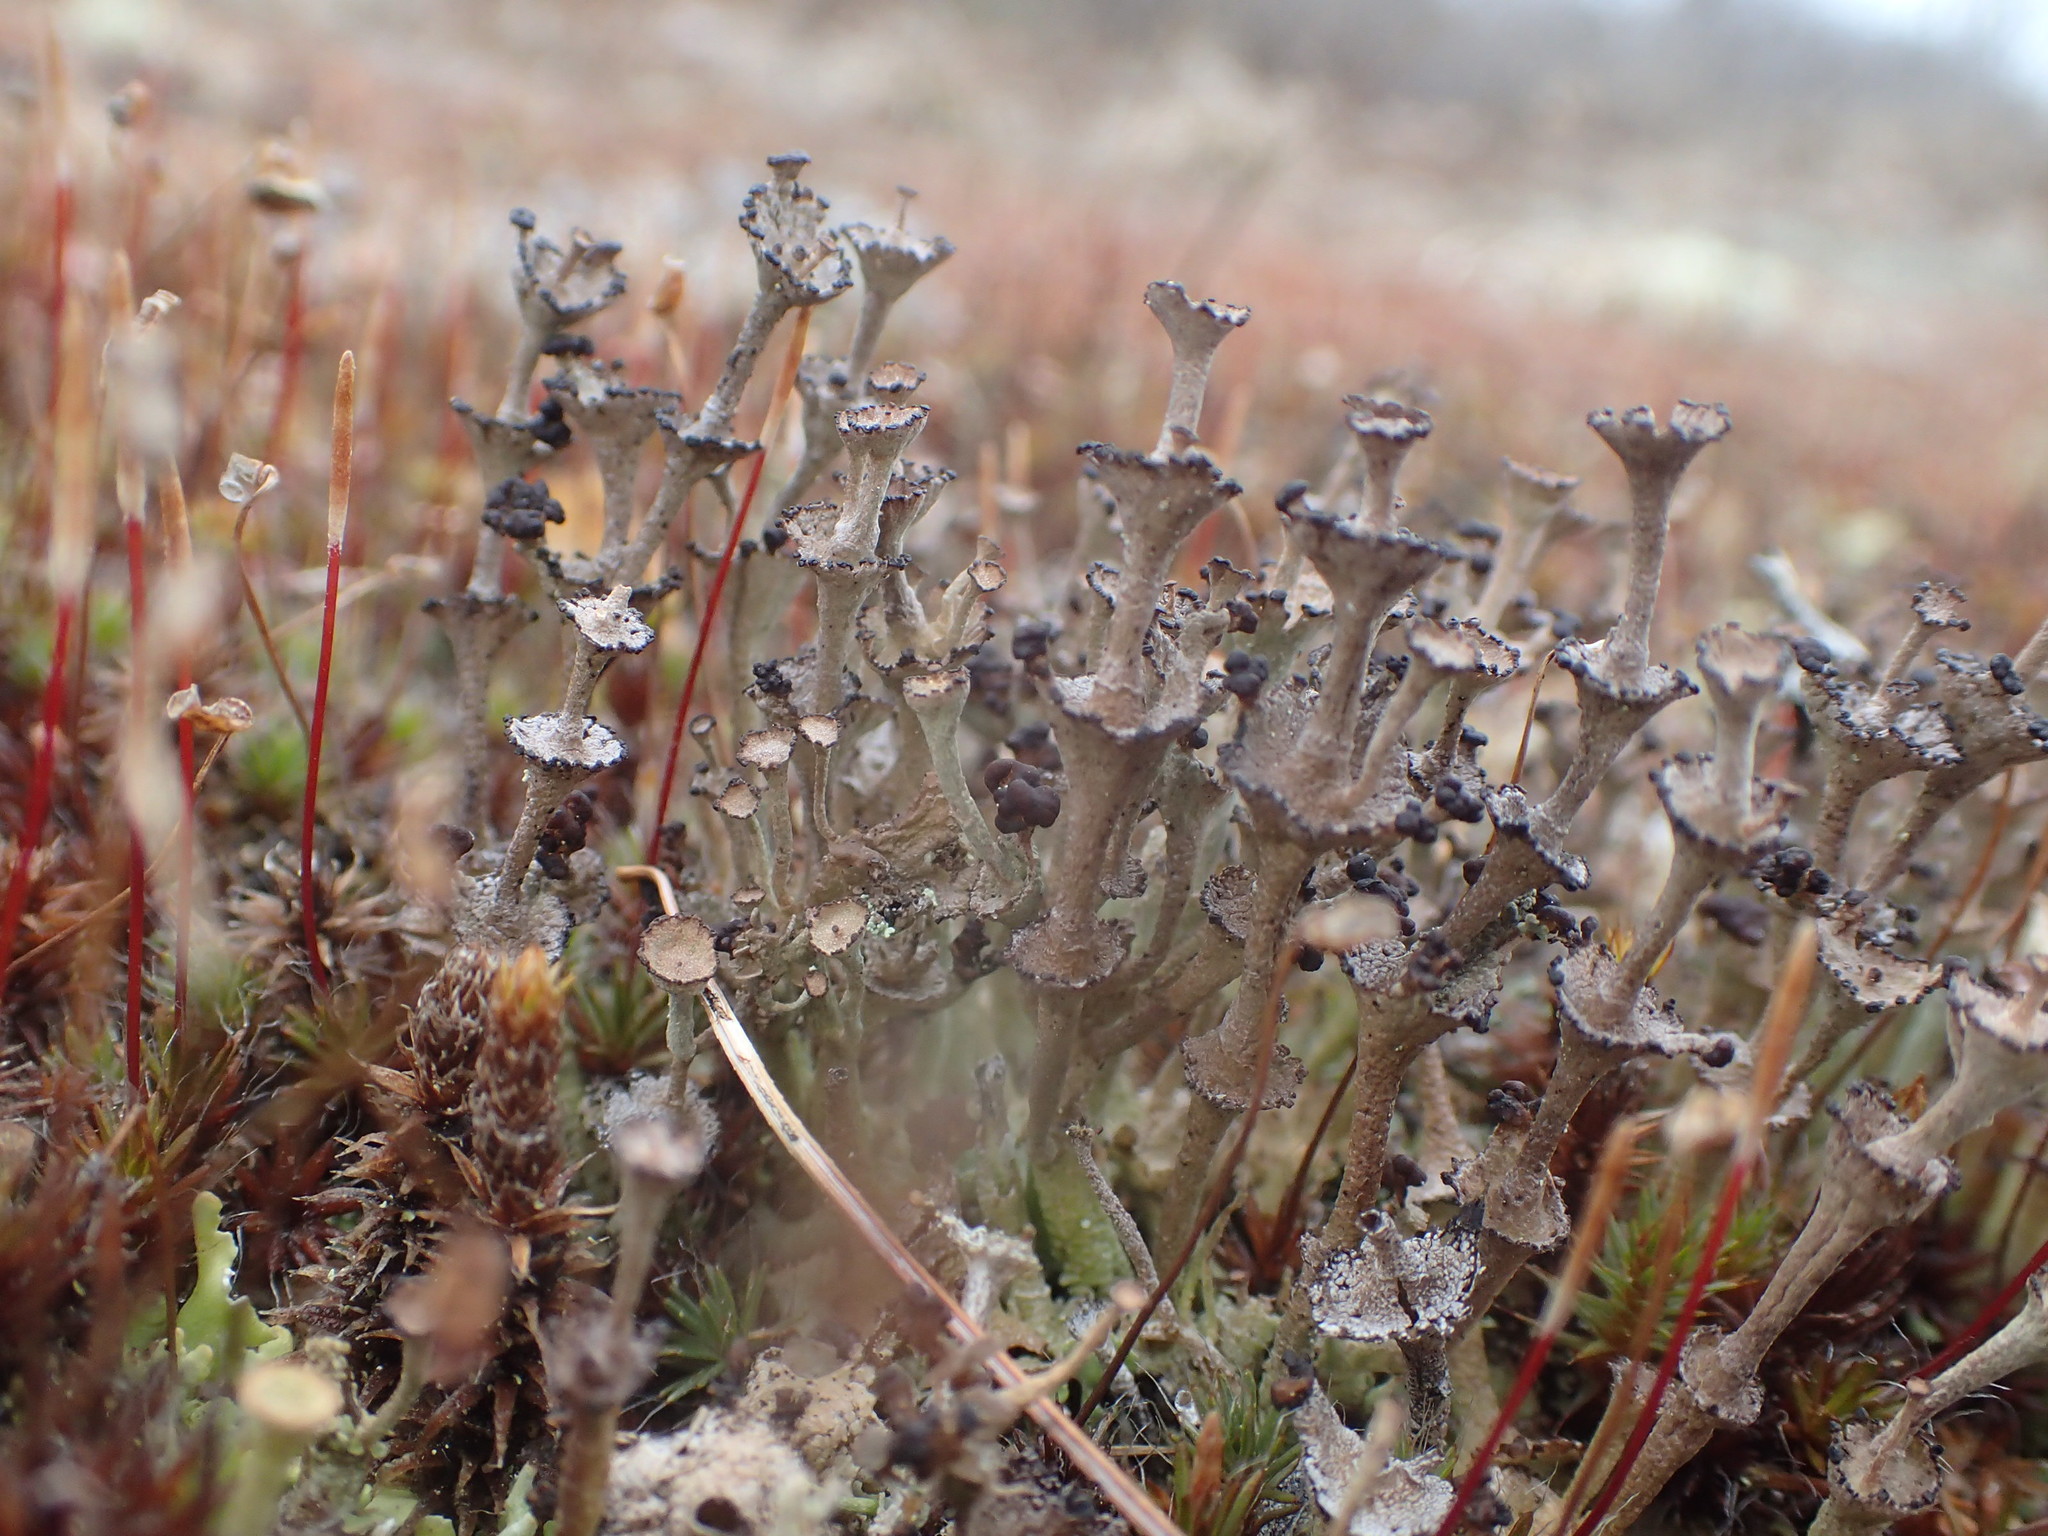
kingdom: Fungi
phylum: Ascomycota
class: Lecanoromycetes
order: Lecanorales
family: Cladoniaceae
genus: Cladonia
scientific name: Cladonia cervicornis
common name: Browned pixie-cup lichen
